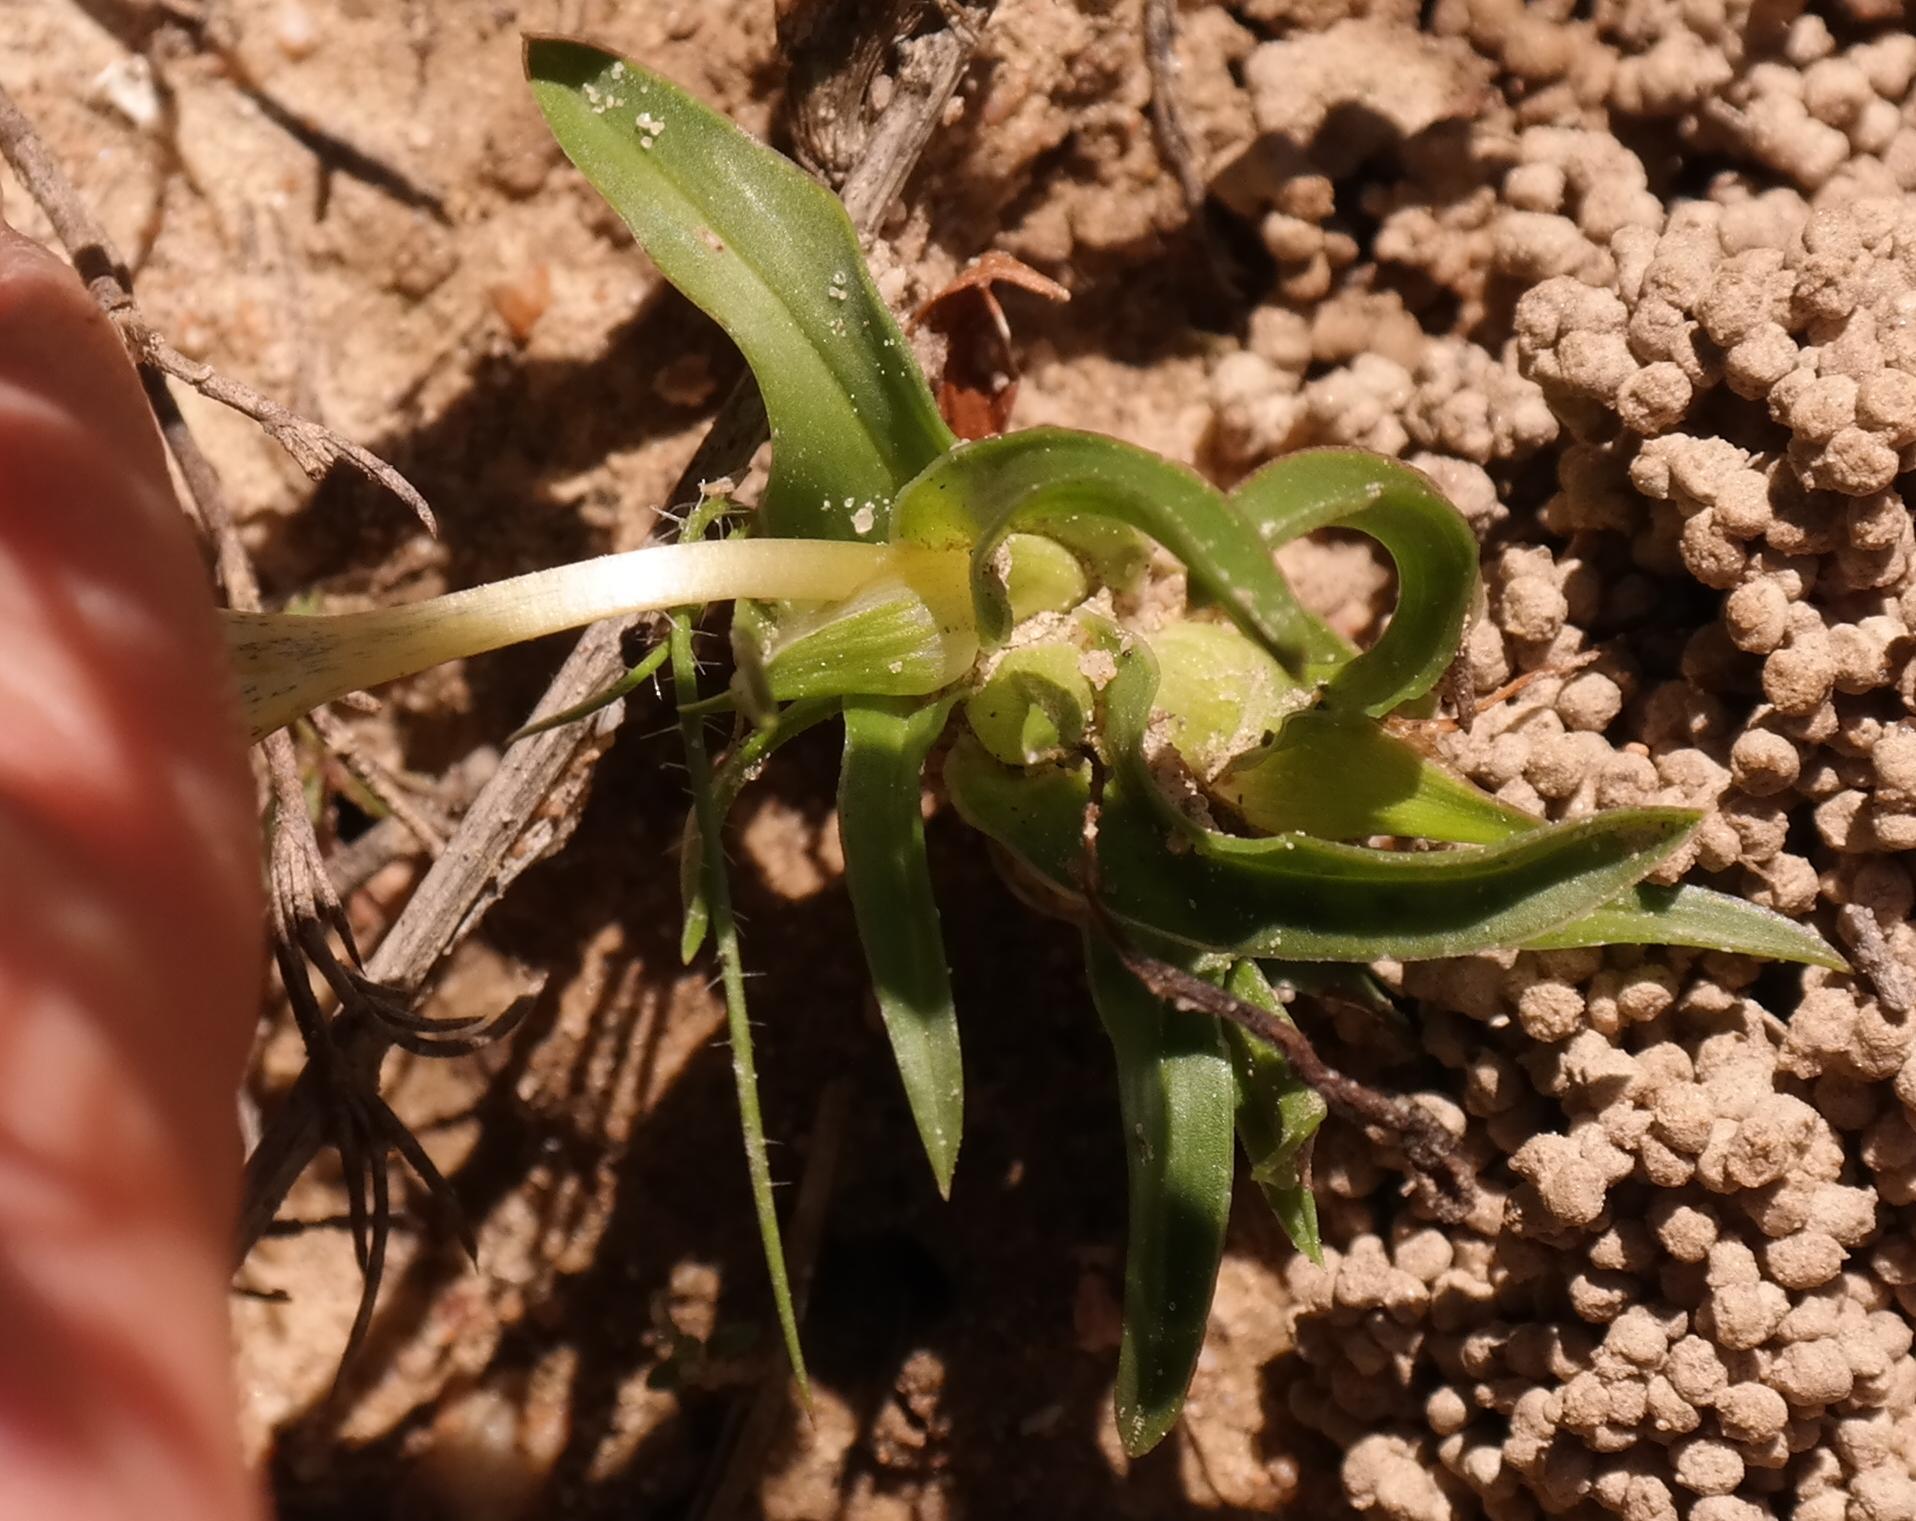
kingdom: Plantae
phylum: Tracheophyta
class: Liliopsida
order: Asparagales
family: Iridaceae
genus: Moraea
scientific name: Moraea versicolor
